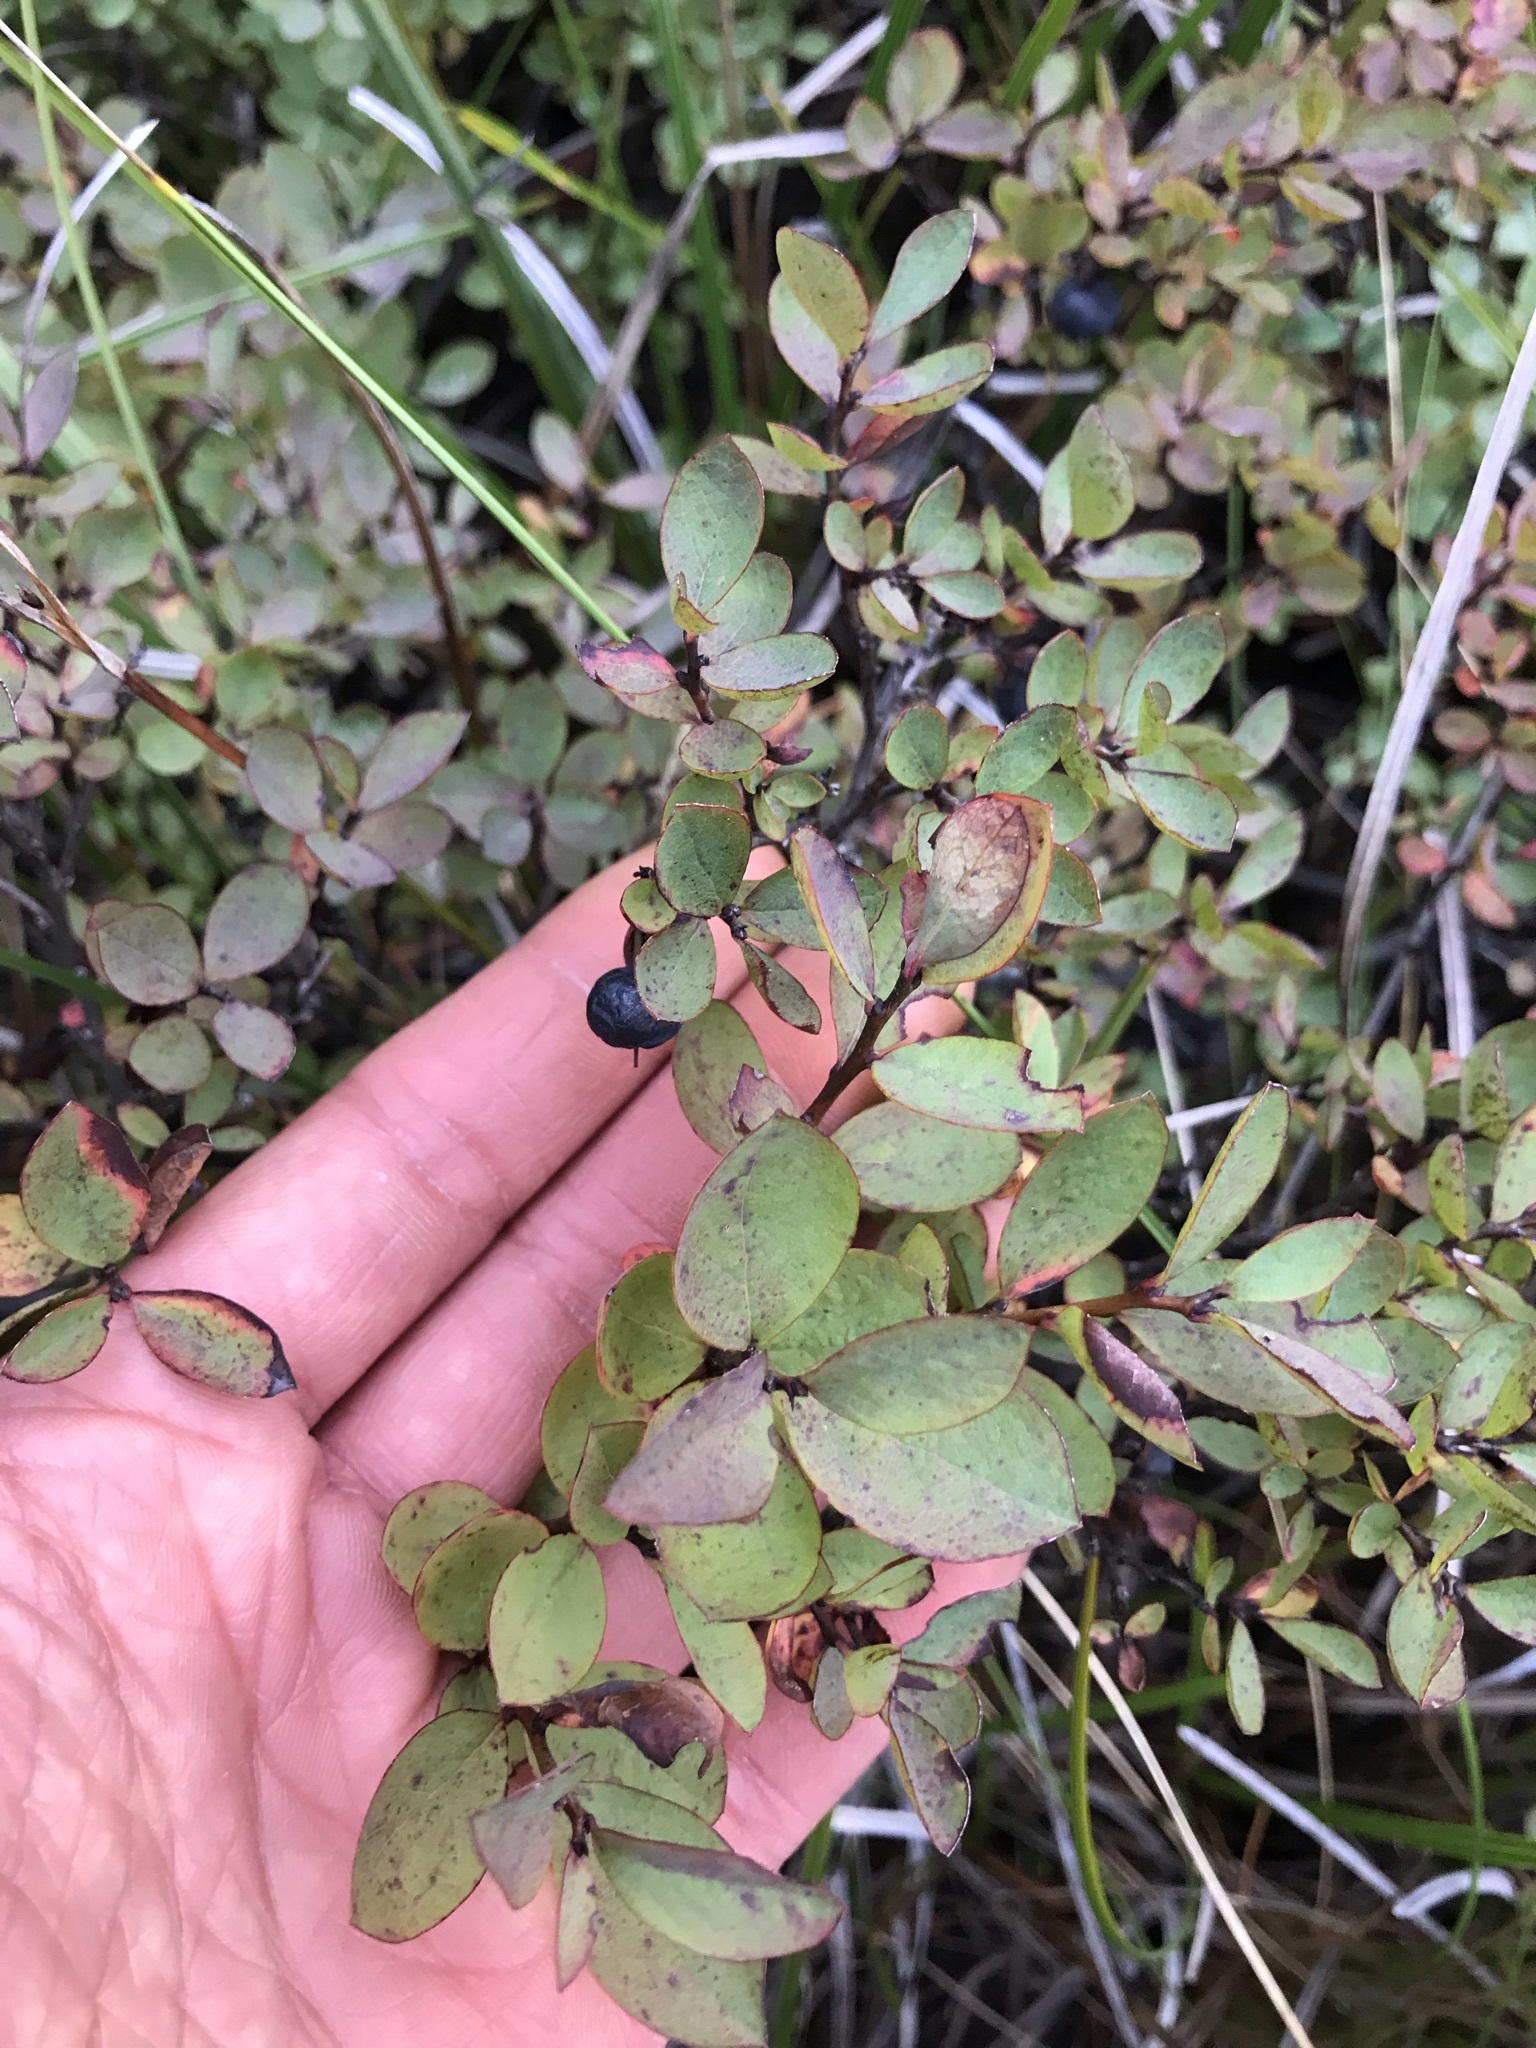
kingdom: Plantae
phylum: Tracheophyta
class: Magnoliopsida
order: Ericales
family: Ericaceae
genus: Vaccinium
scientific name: Vaccinium uliginosum
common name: Bog bilberry
